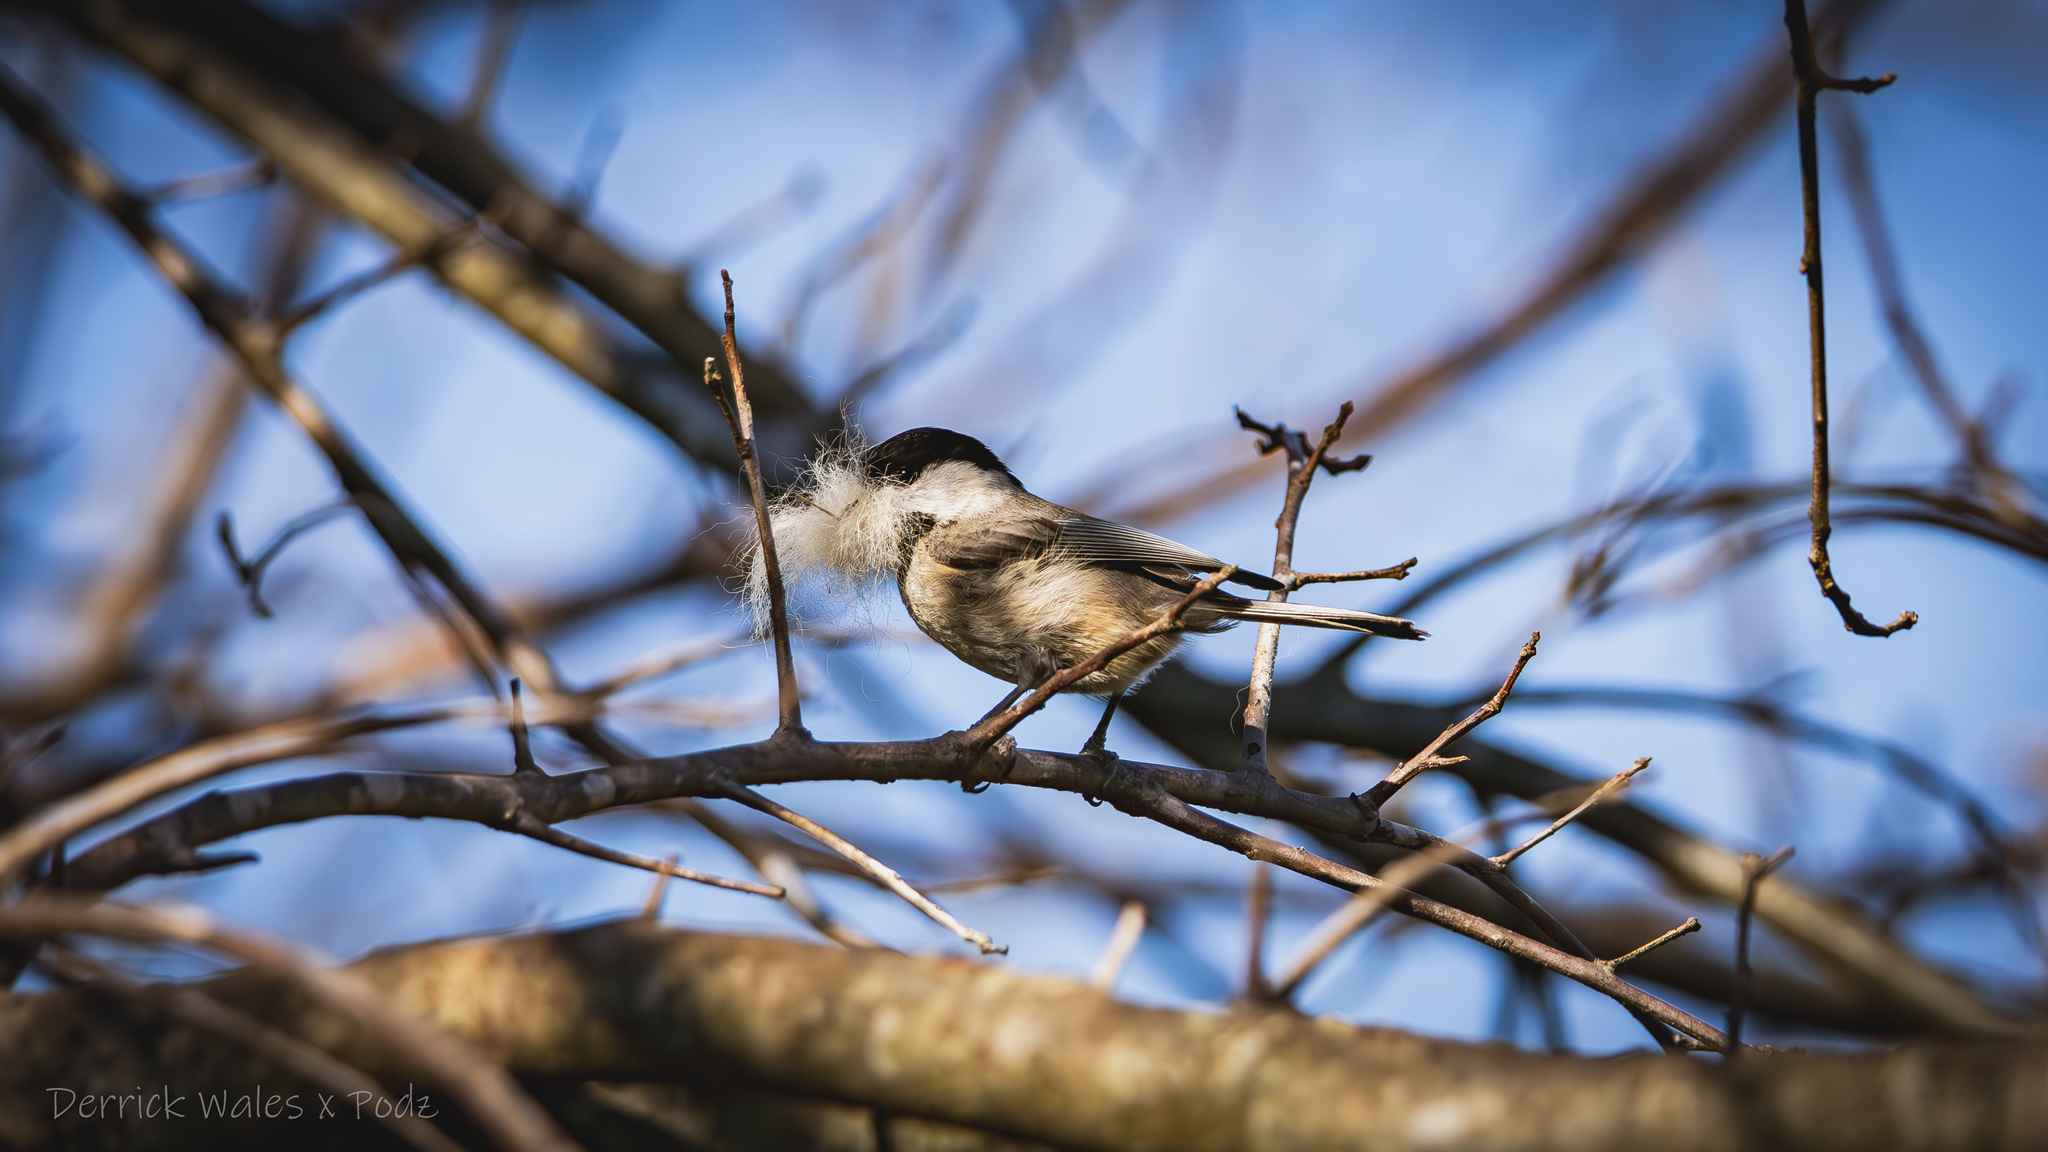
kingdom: Animalia
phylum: Chordata
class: Aves
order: Passeriformes
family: Paridae
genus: Poecile
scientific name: Poecile carolinensis
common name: Carolina chickadee
